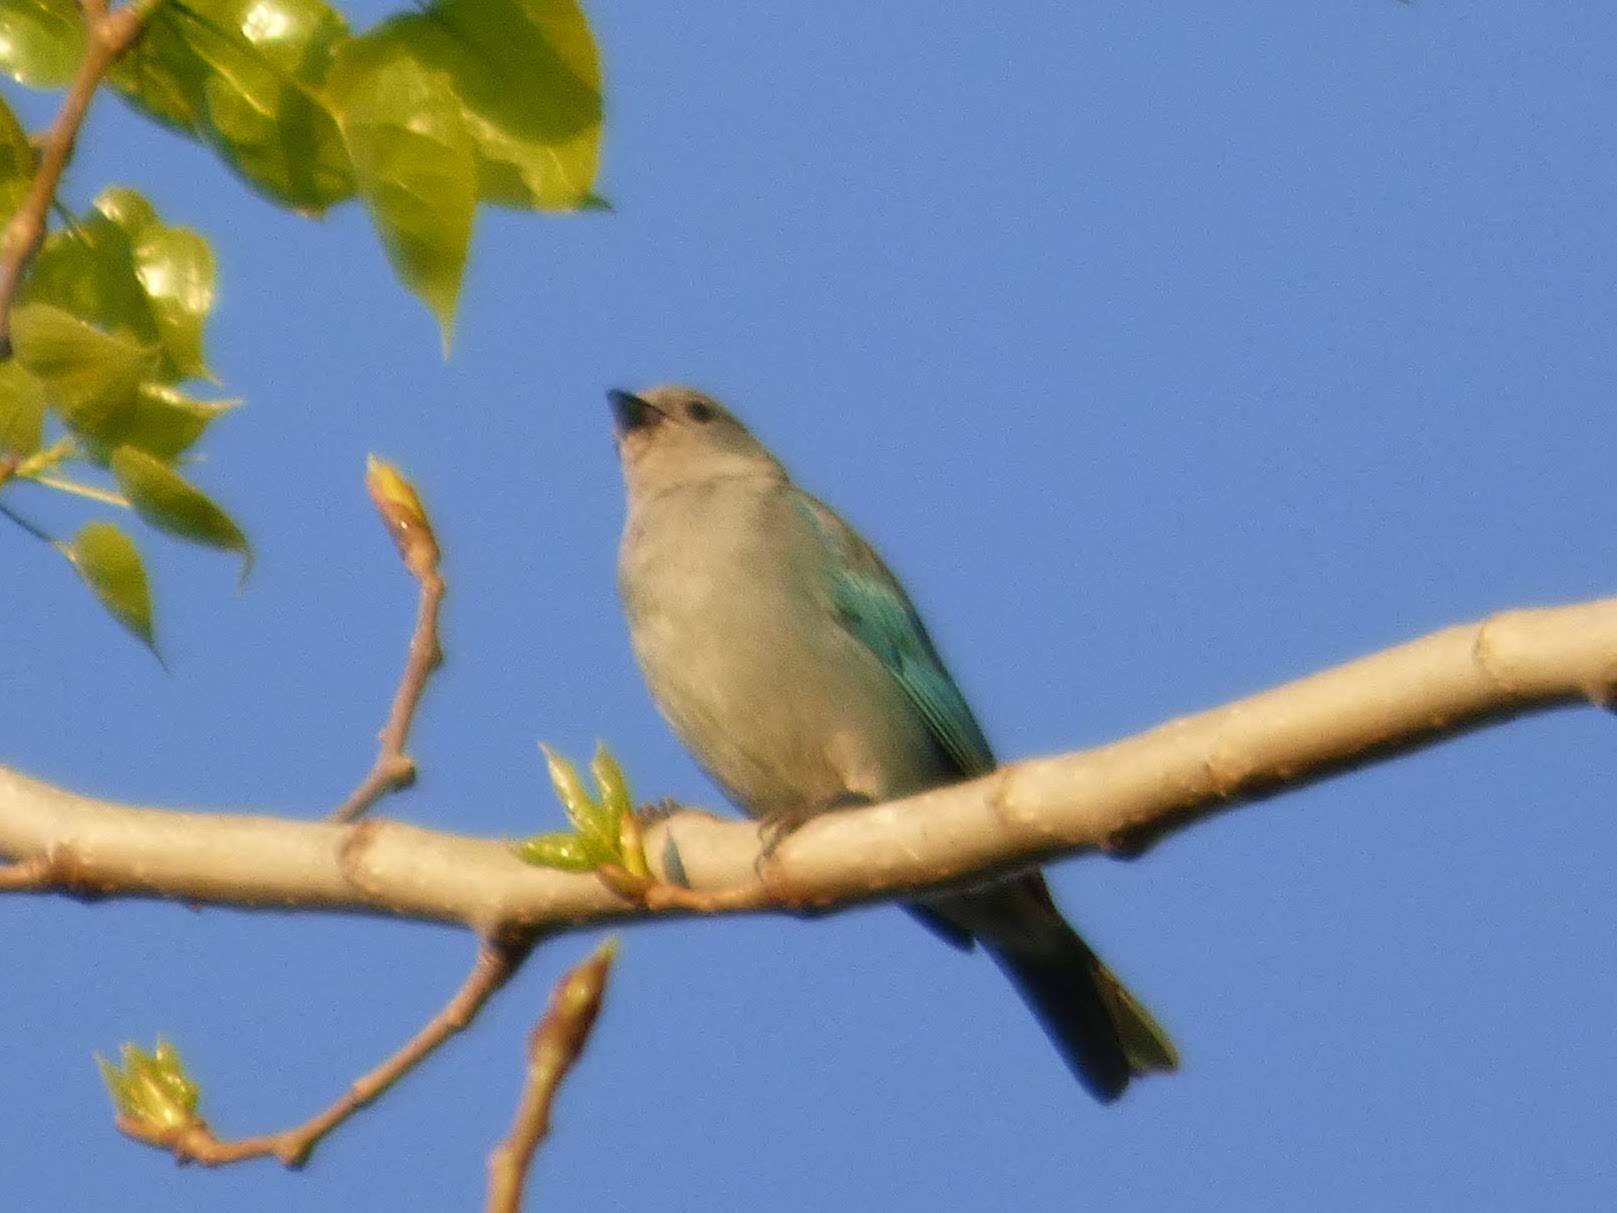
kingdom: Animalia
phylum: Chordata
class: Aves
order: Passeriformes
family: Thraupidae
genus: Thraupis
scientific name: Thraupis sayaca
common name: Sayaca tanager
